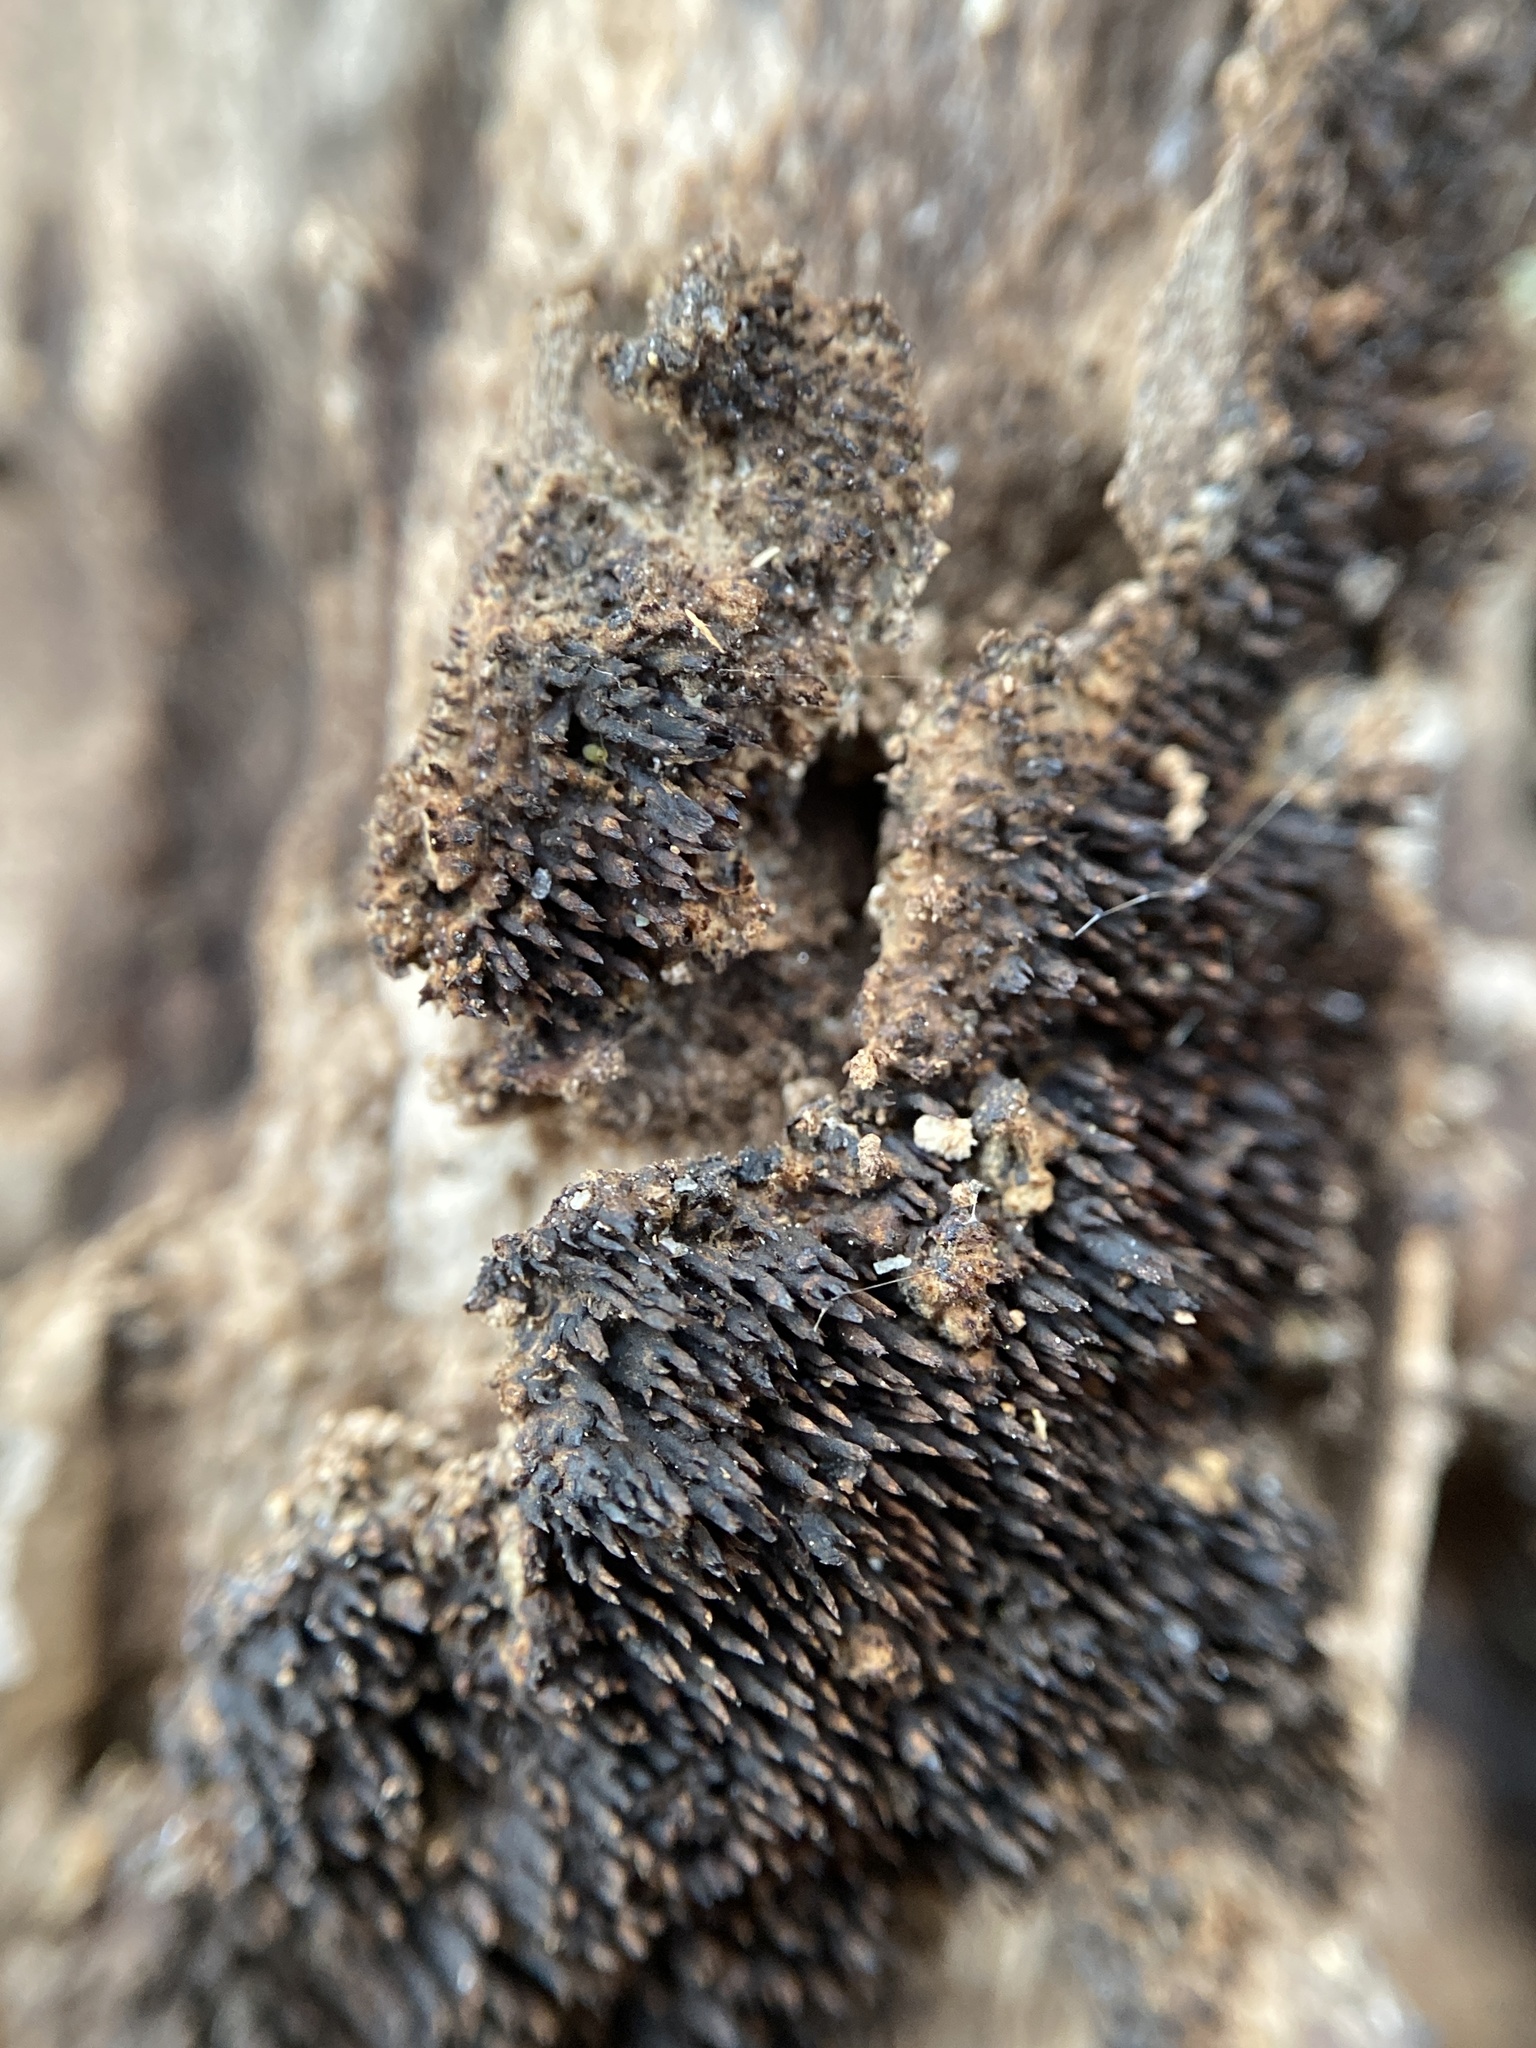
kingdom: Fungi
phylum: Basidiomycota
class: Agaricomycetes
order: Hymenochaetales
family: Hymenochaetaceae
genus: Hydnoporia
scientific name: Hydnoporia olivacea
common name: Brown-toothed crust fungus
